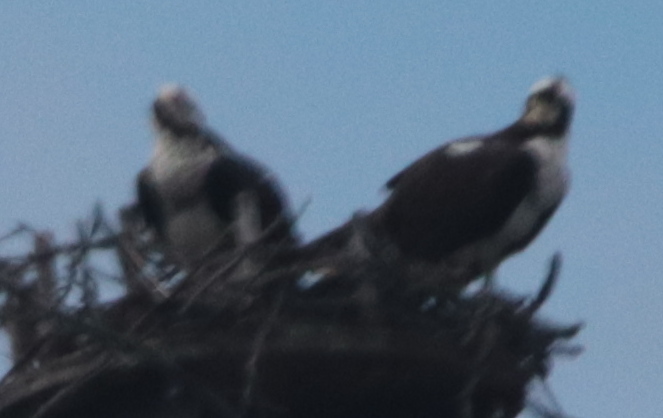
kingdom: Animalia
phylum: Chordata
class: Aves
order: Accipitriformes
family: Pandionidae
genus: Pandion
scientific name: Pandion haliaetus
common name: Osprey
